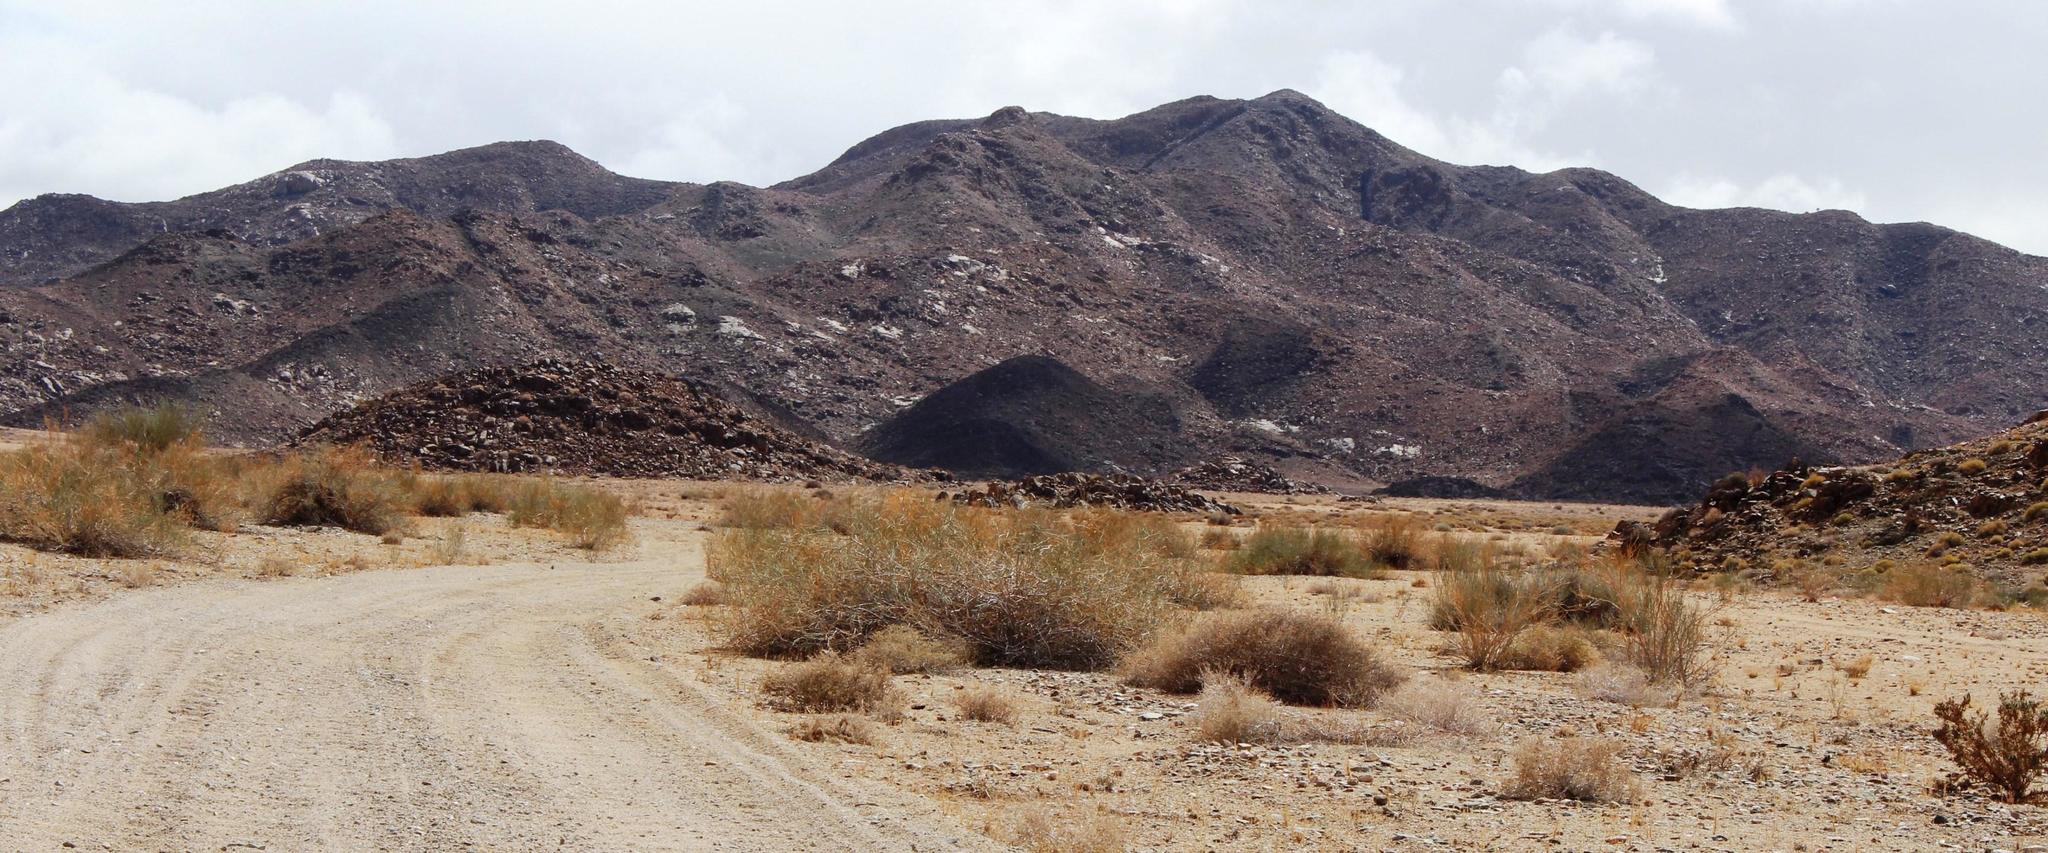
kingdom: Plantae
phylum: Tracheophyta
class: Magnoliopsida
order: Zygophyllales
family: Zygophyllaceae
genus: Sisyndite
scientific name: Sisyndite spartea
